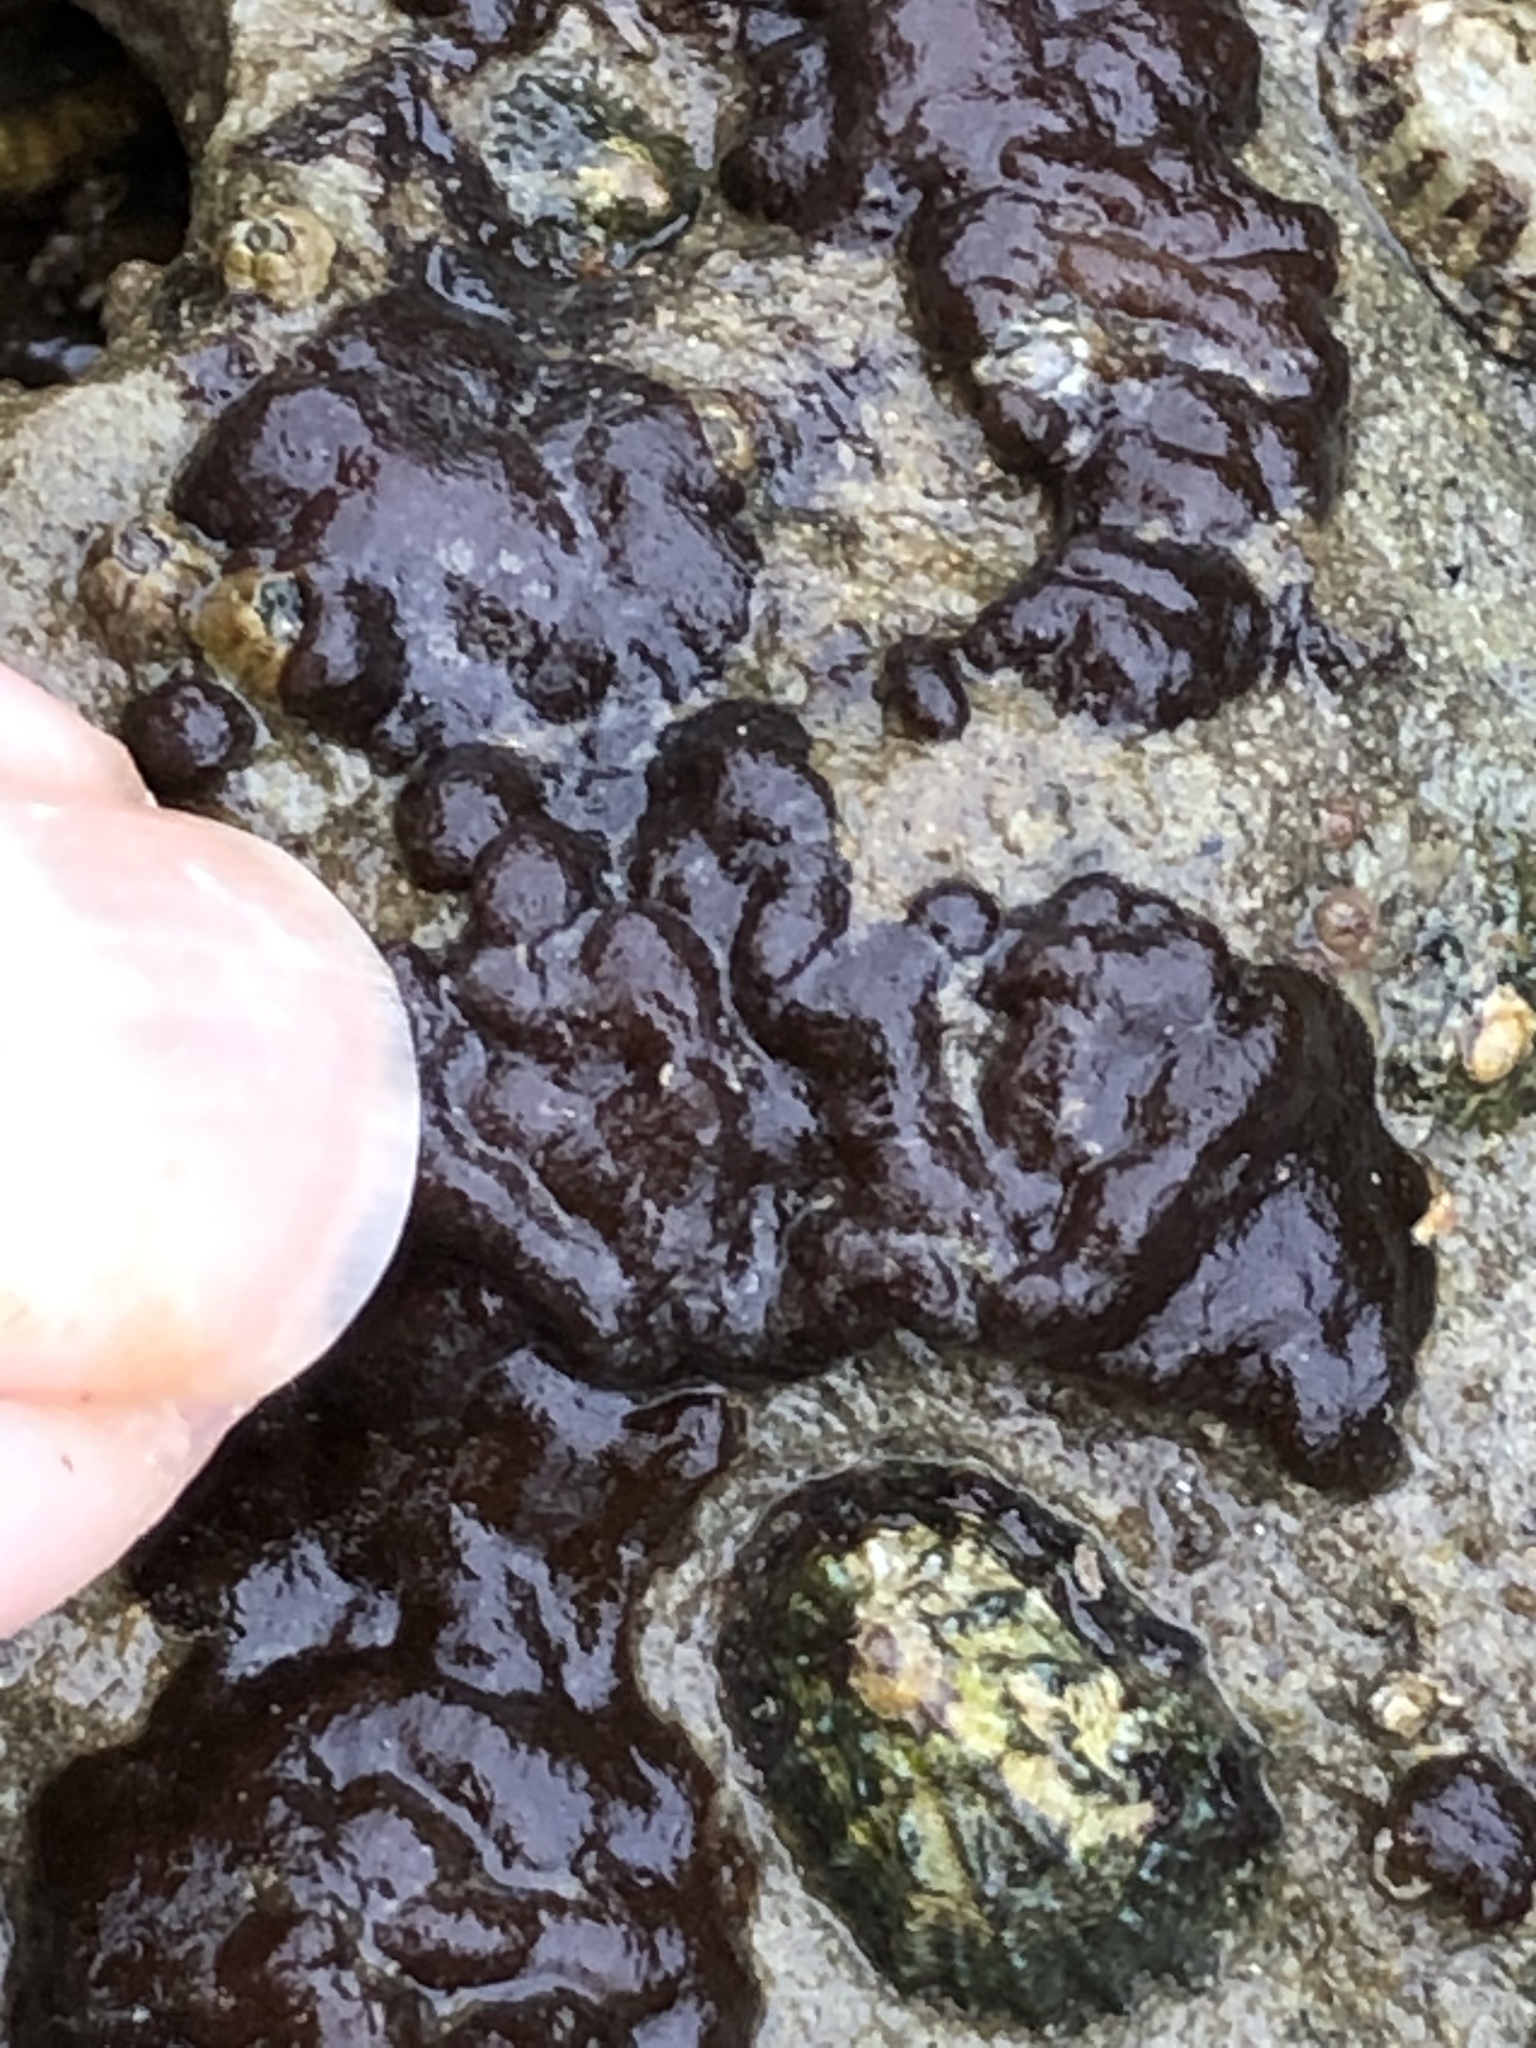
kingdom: Chromista
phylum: Ochrophyta
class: Phaeophyceae
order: Ectocarpales
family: Petrospongiaceae
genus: Petrospongium
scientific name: Petrospongium rugosum
